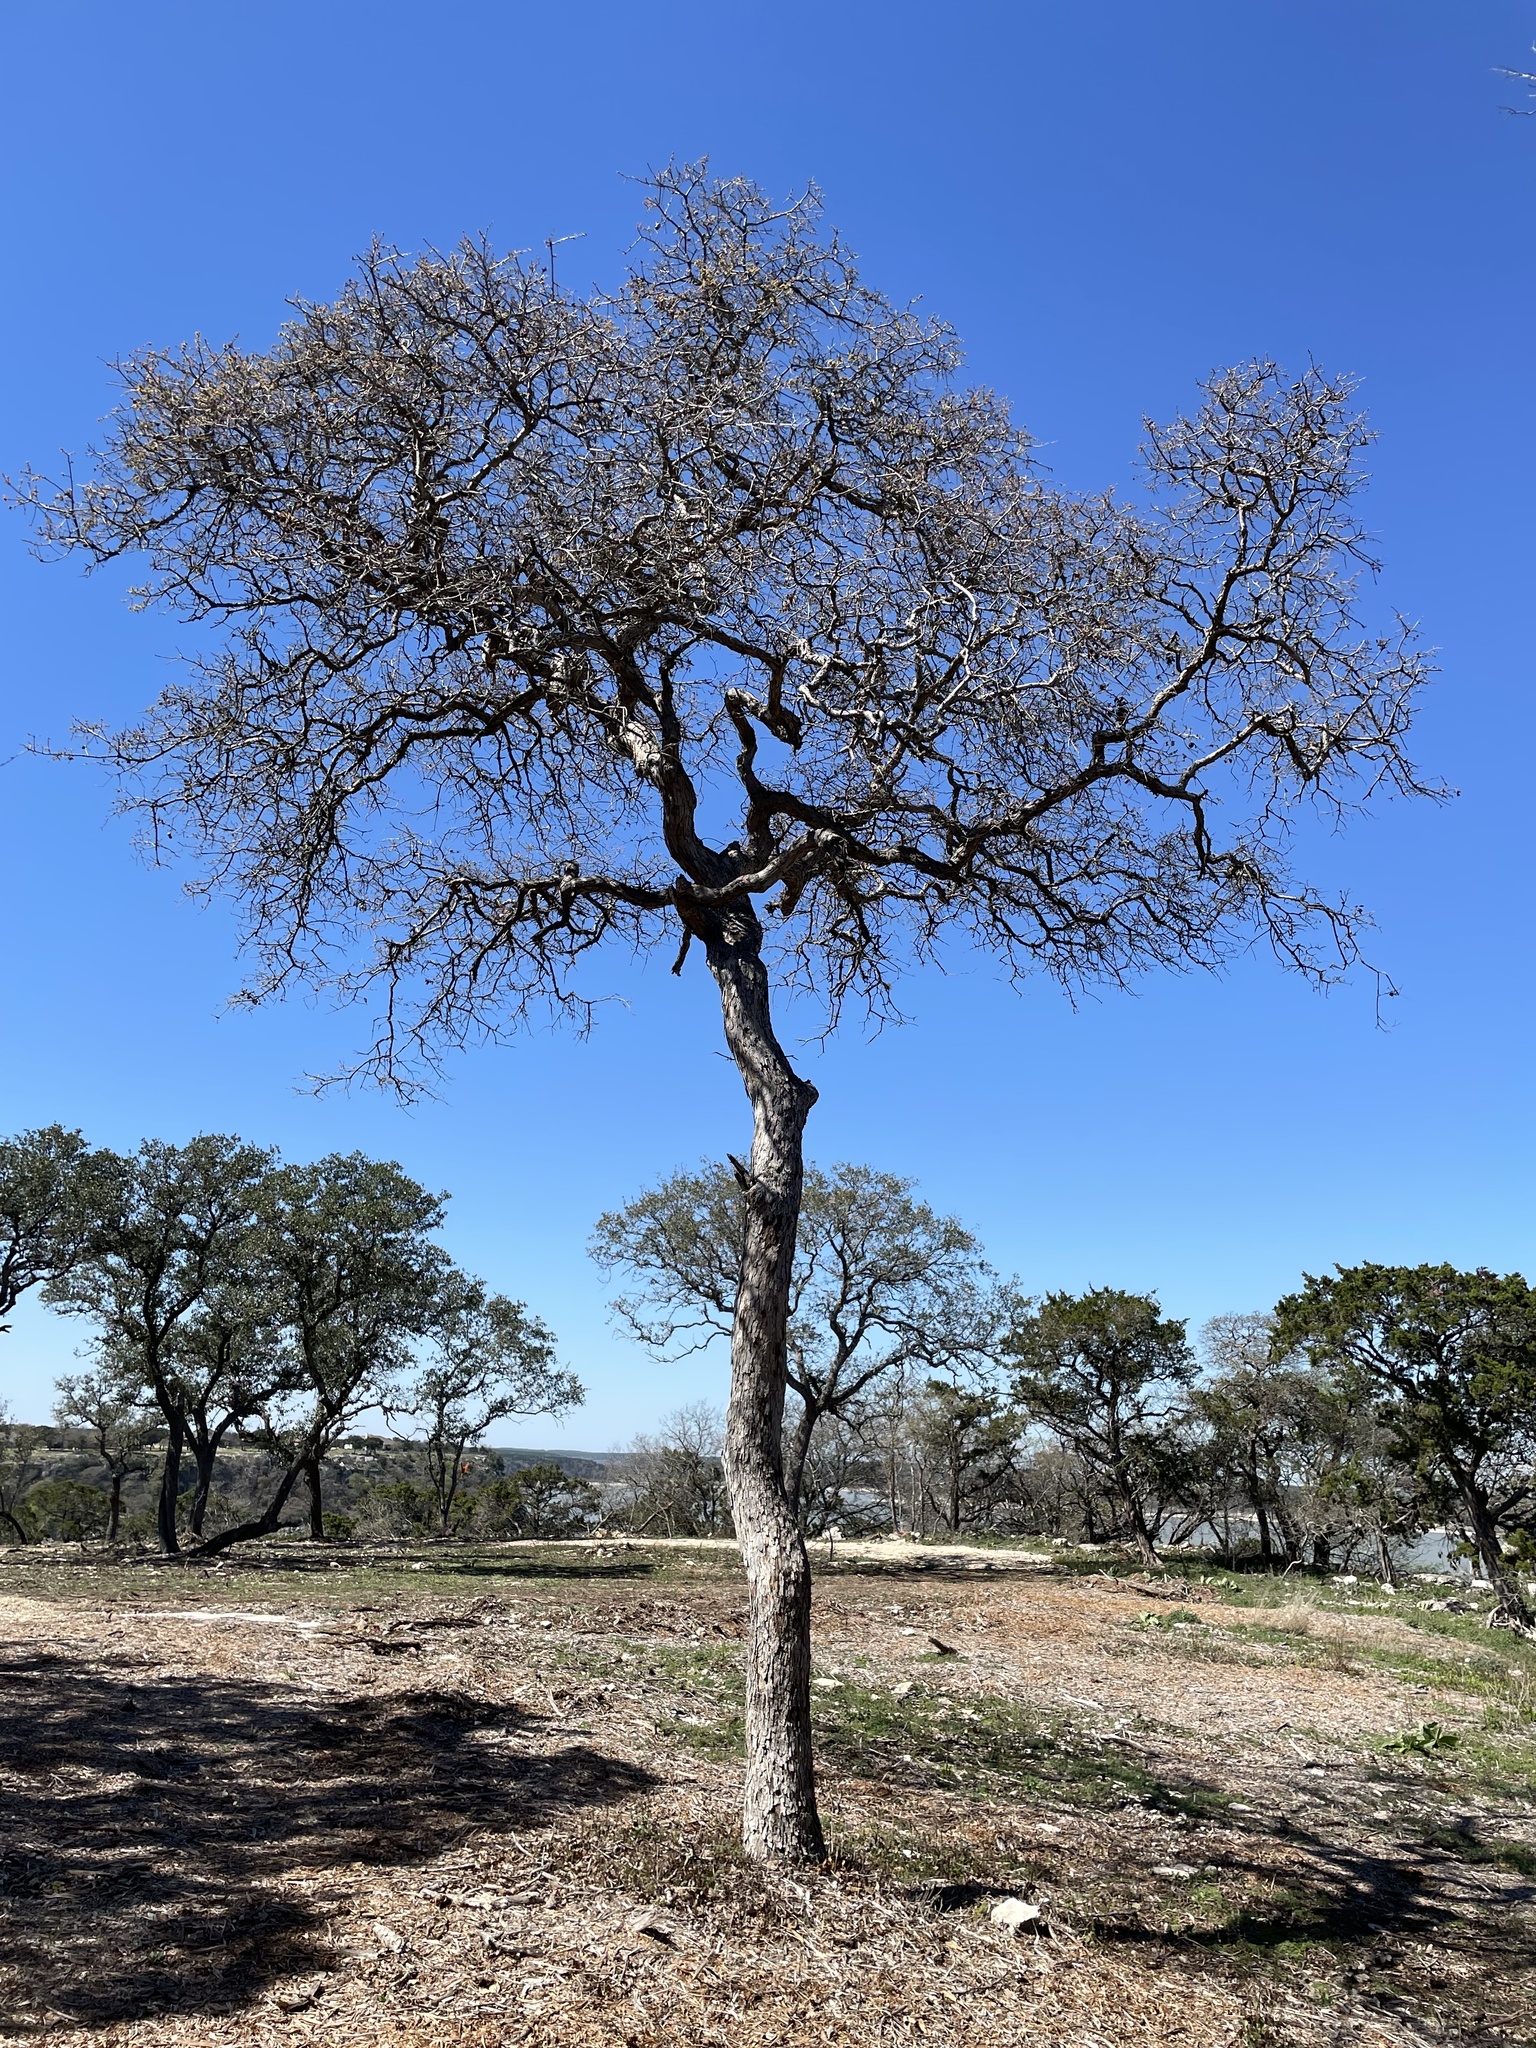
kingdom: Plantae
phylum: Tracheophyta
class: Magnoliopsida
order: Fagales
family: Fagaceae
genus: Quercus
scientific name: Quercus sinuata
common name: Durand oak
